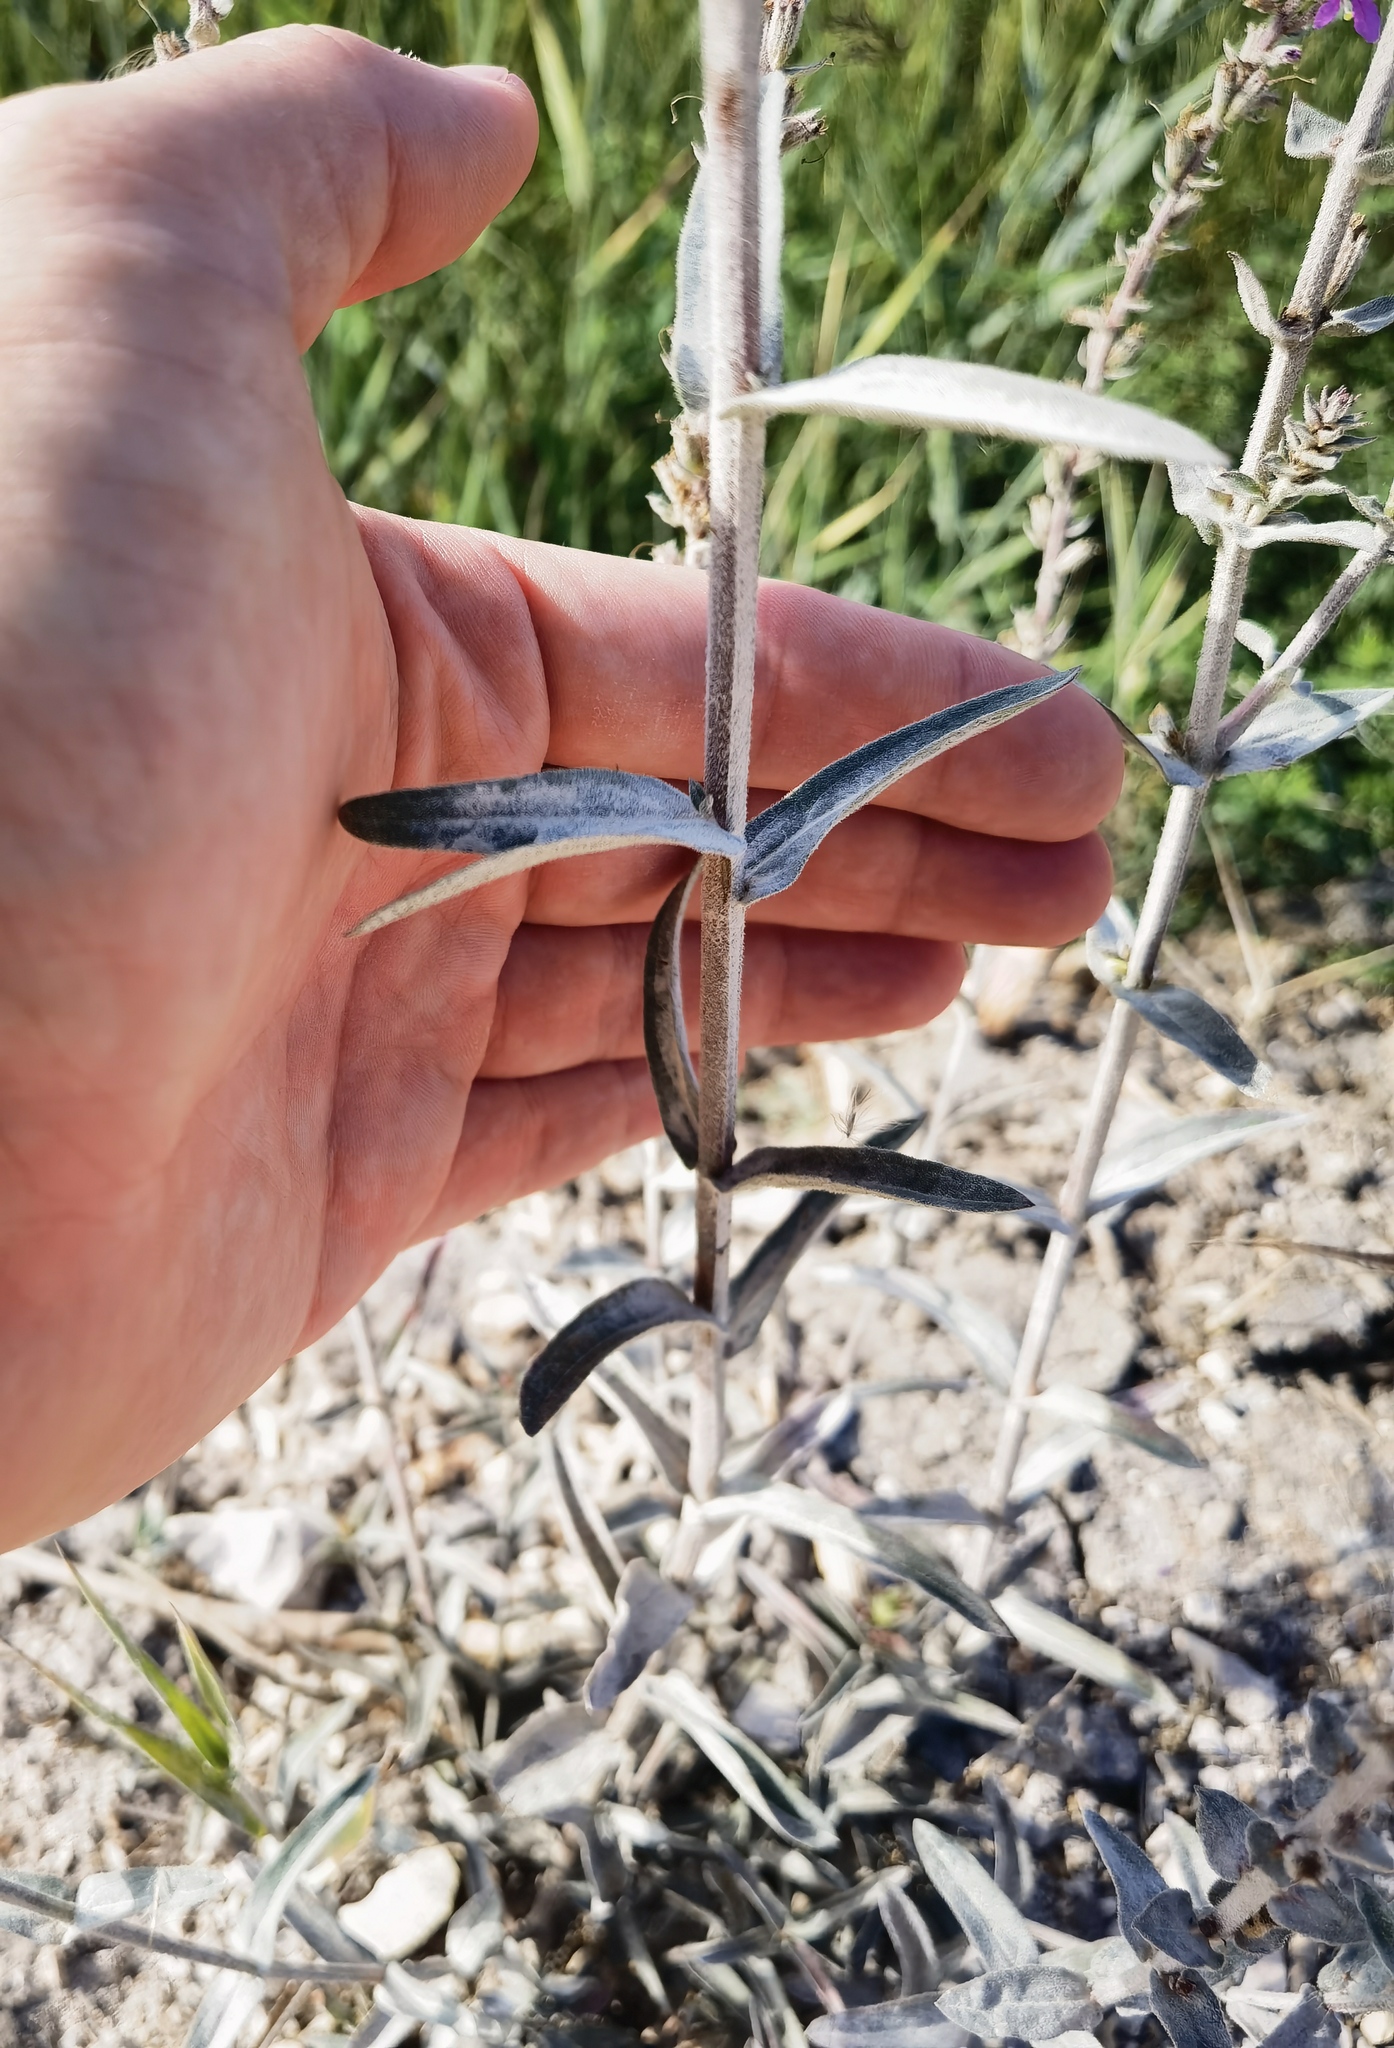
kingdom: Plantae
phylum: Tracheophyta
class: Magnoliopsida
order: Myrtales
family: Lythraceae
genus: Lythrum
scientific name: Lythrum salicaria
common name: Purple loosestrife
